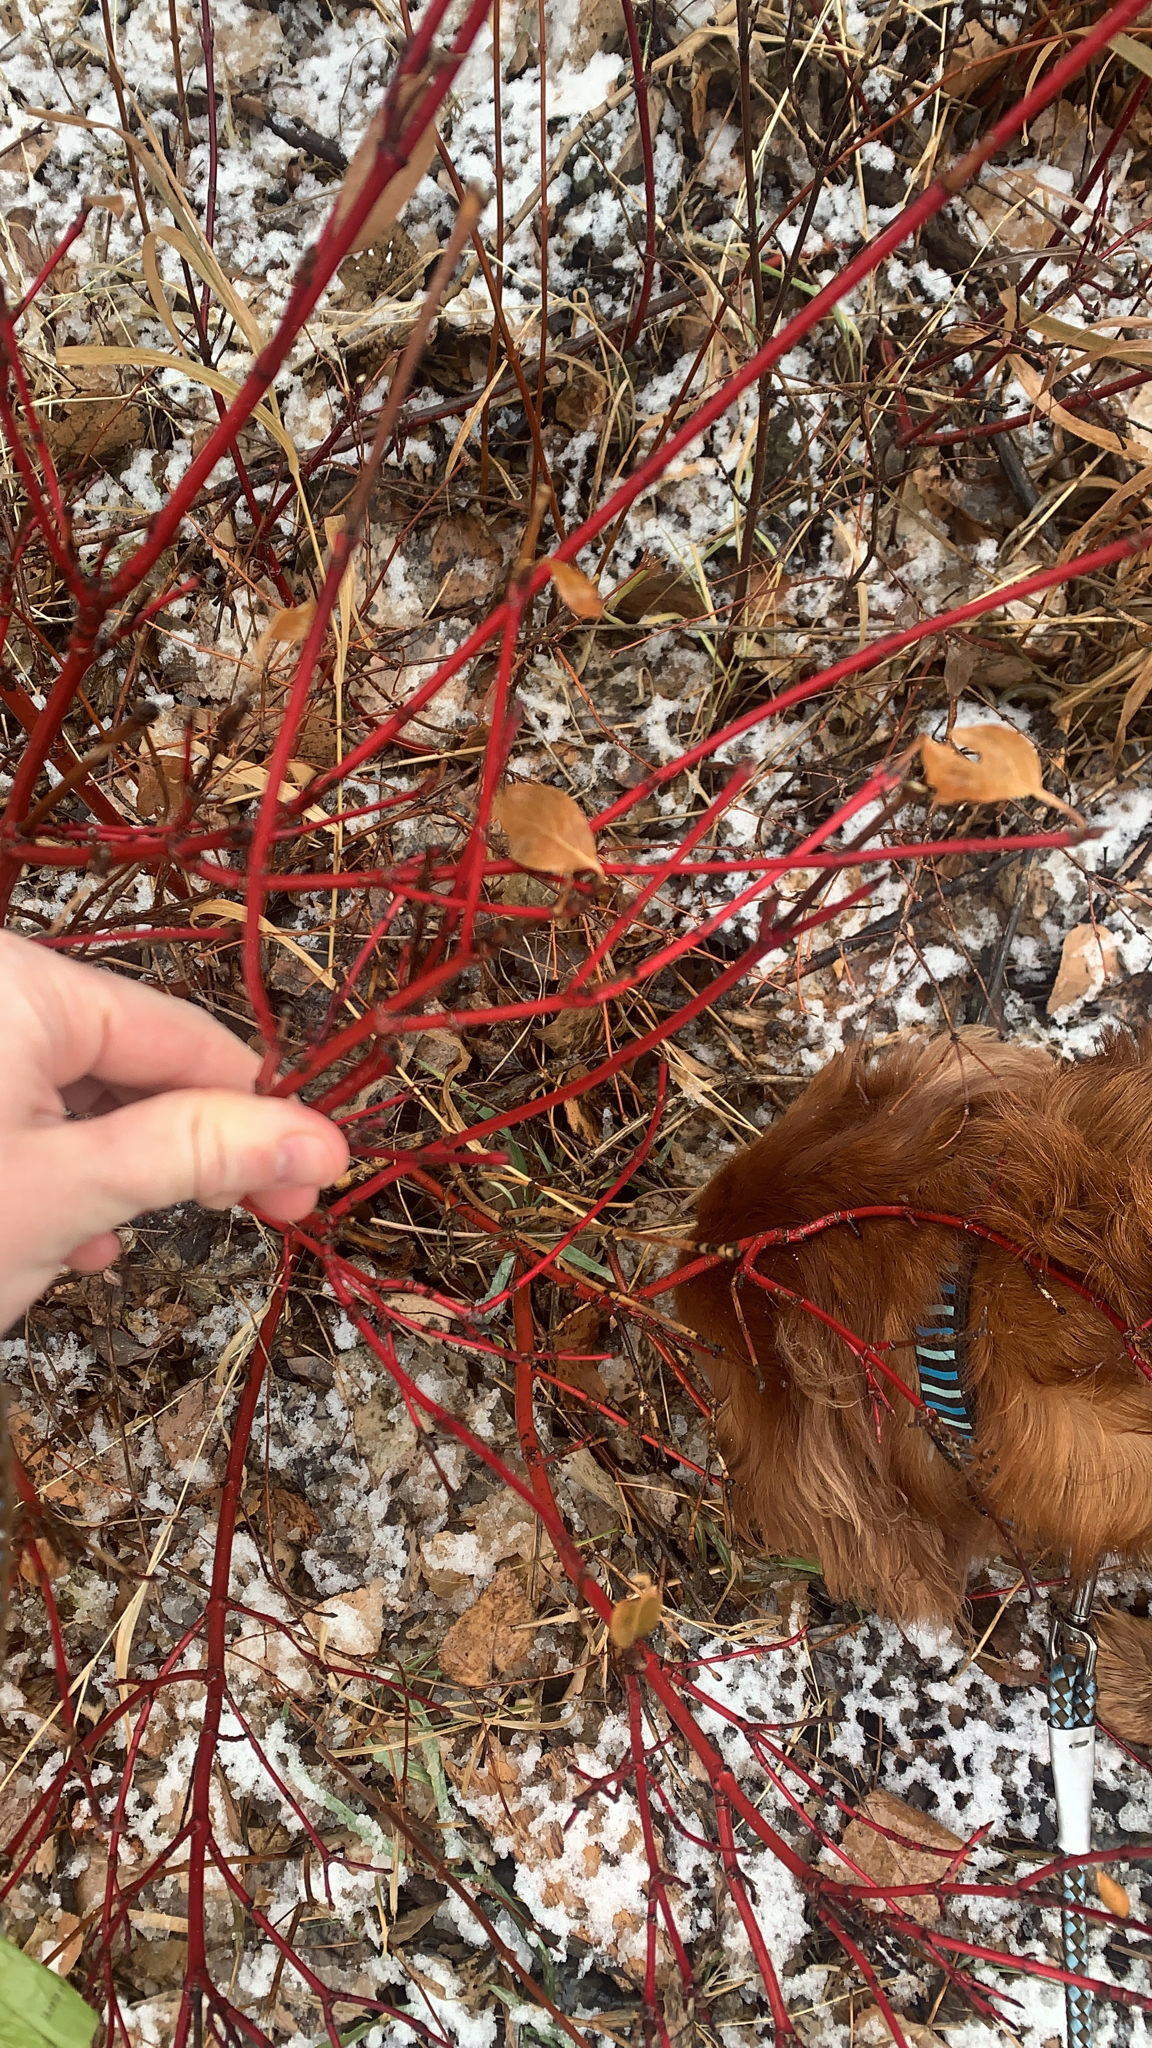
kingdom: Plantae
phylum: Tracheophyta
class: Magnoliopsida
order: Cornales
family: Cornaceae
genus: Cornus
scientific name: Cornus sericea
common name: Red-osier dogwood
